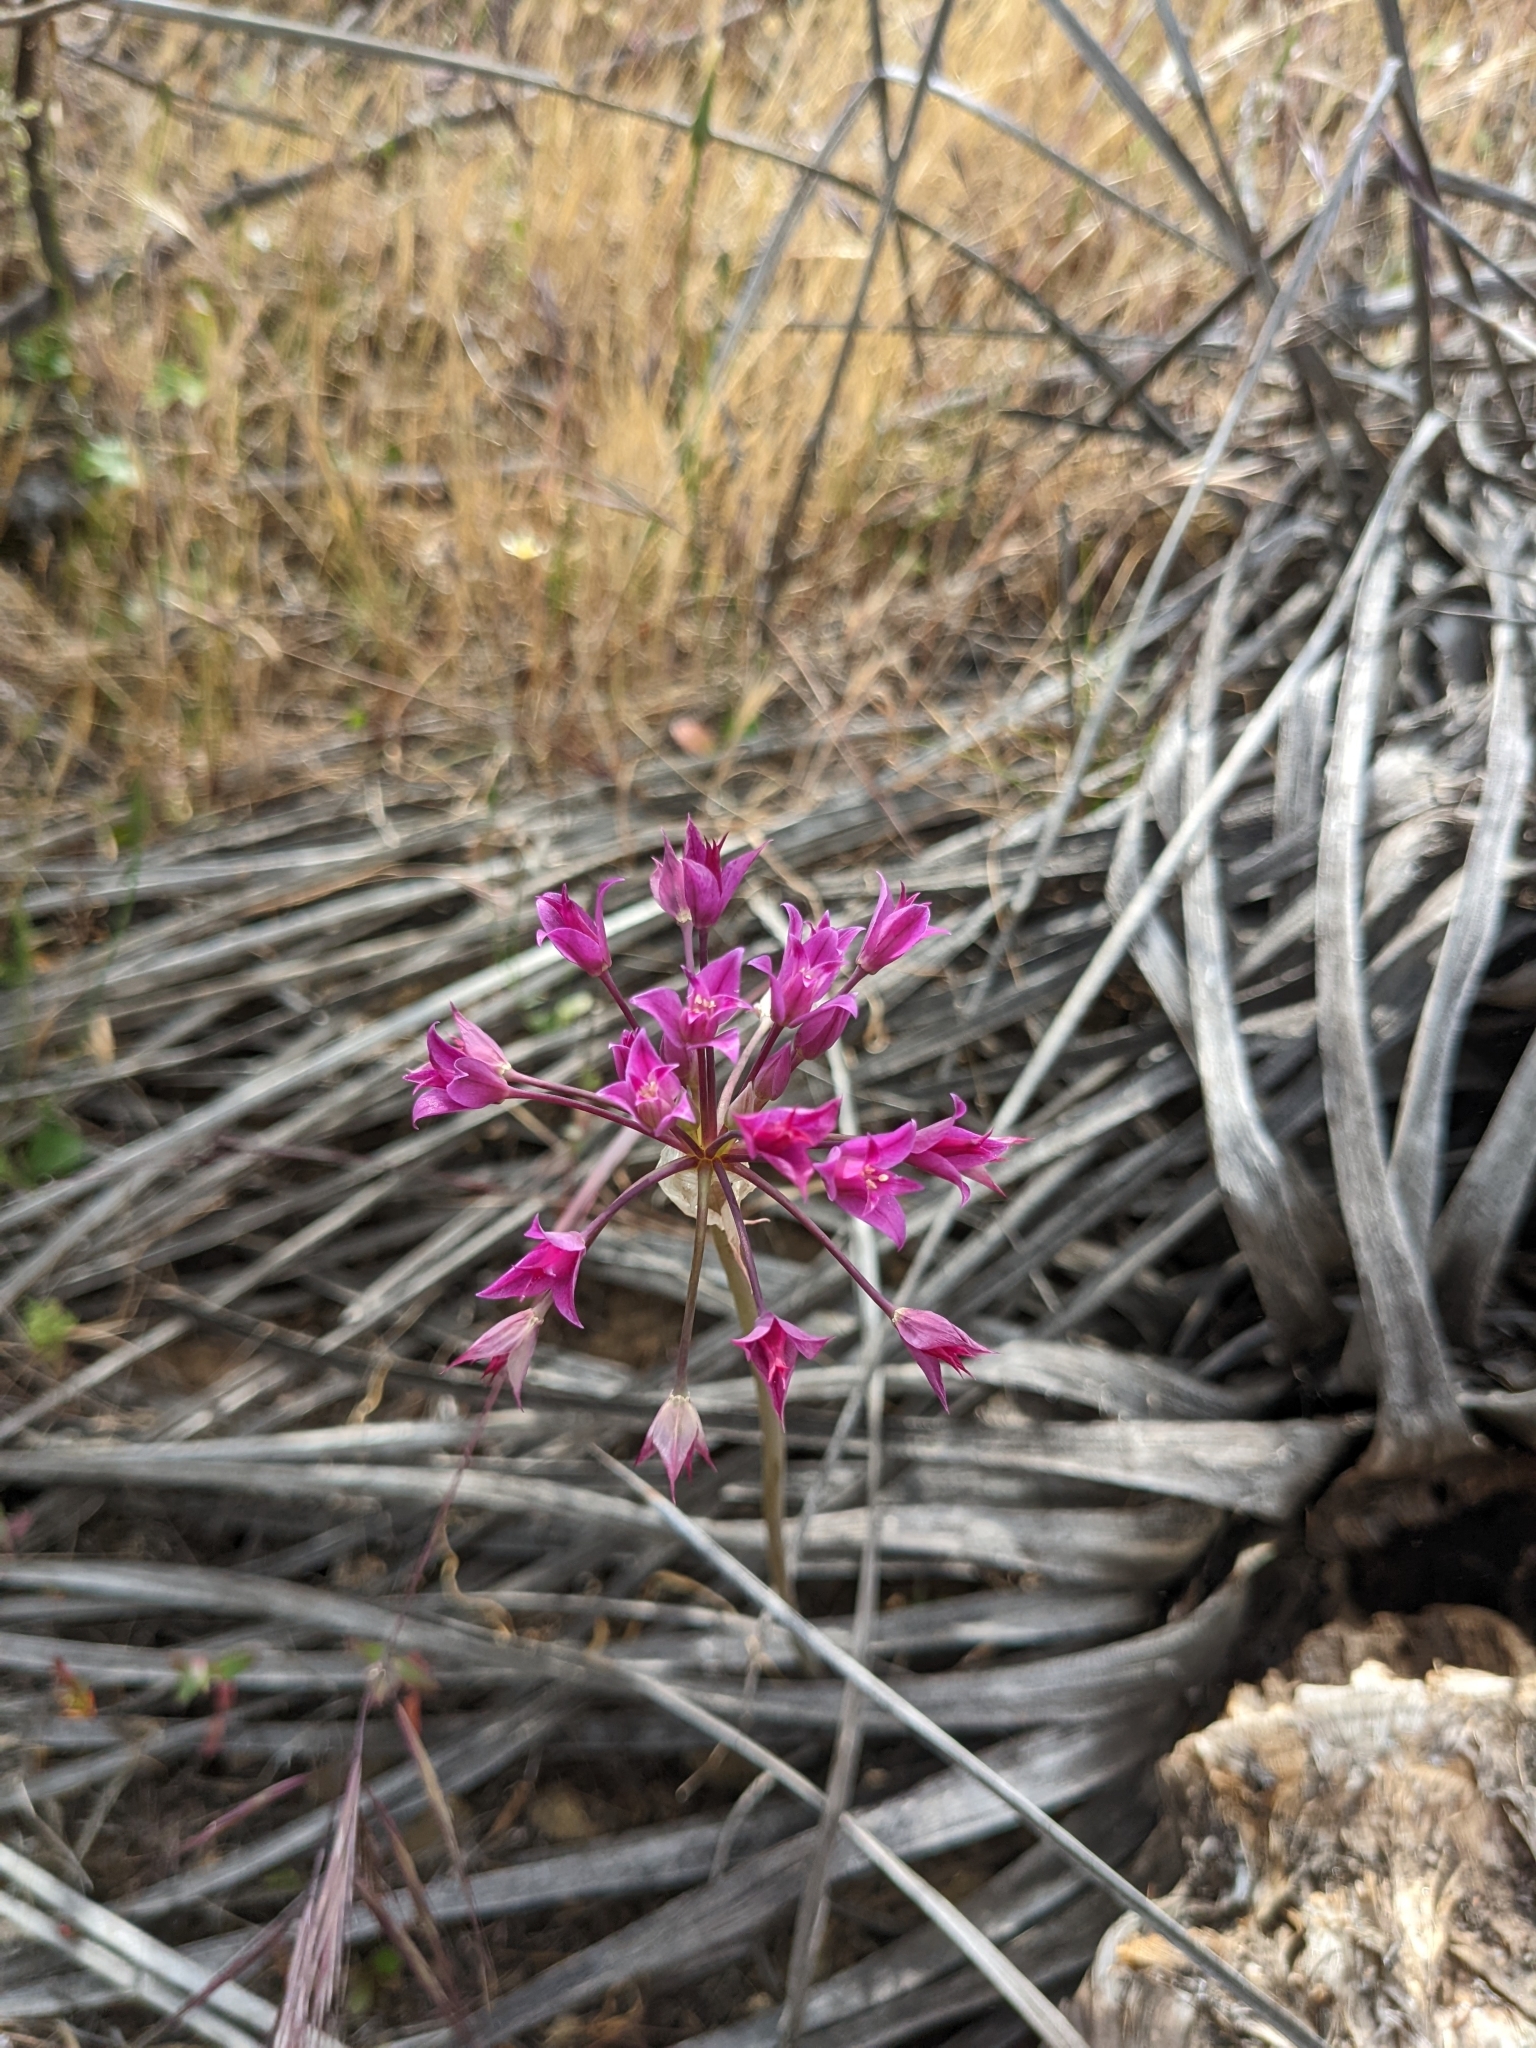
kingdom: Plantae
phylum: Tracheophyta
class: Liliopsida
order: Asparagales
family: Amaryllidaceae
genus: Allium
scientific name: Allium peninsulare
